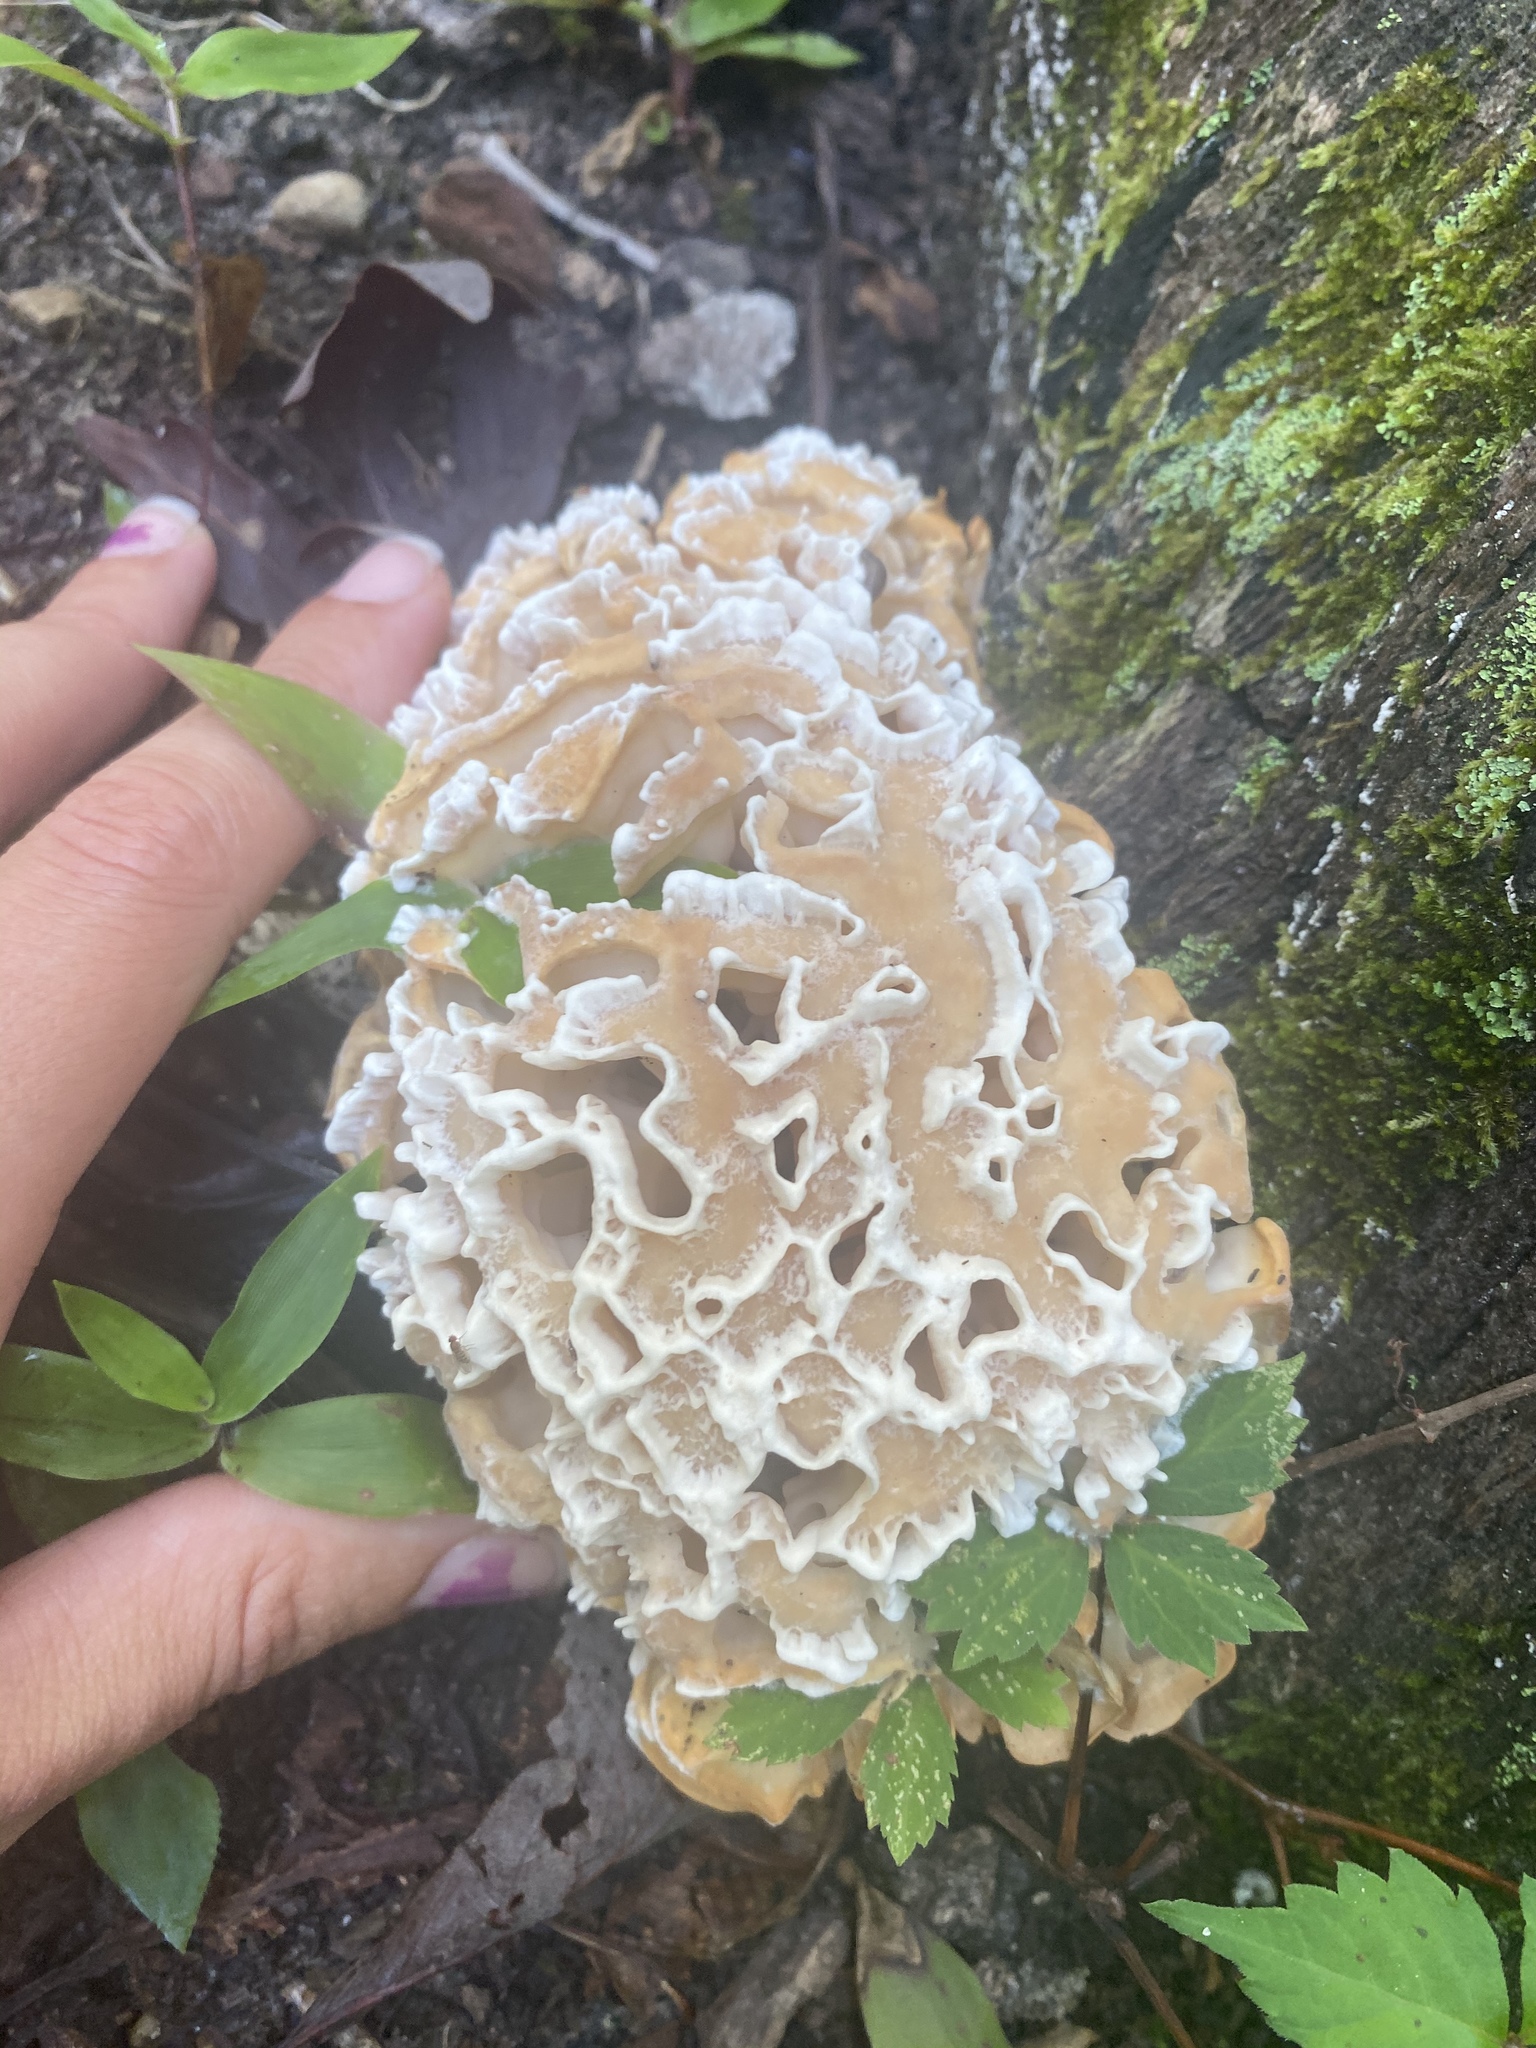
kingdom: Fungi
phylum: Basidiomycota
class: Agaricomycetes
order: Polyporales
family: Sparassidaceae
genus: Sparassis
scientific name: Sparassis spathulata
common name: Eastern cauliflower mushroom
